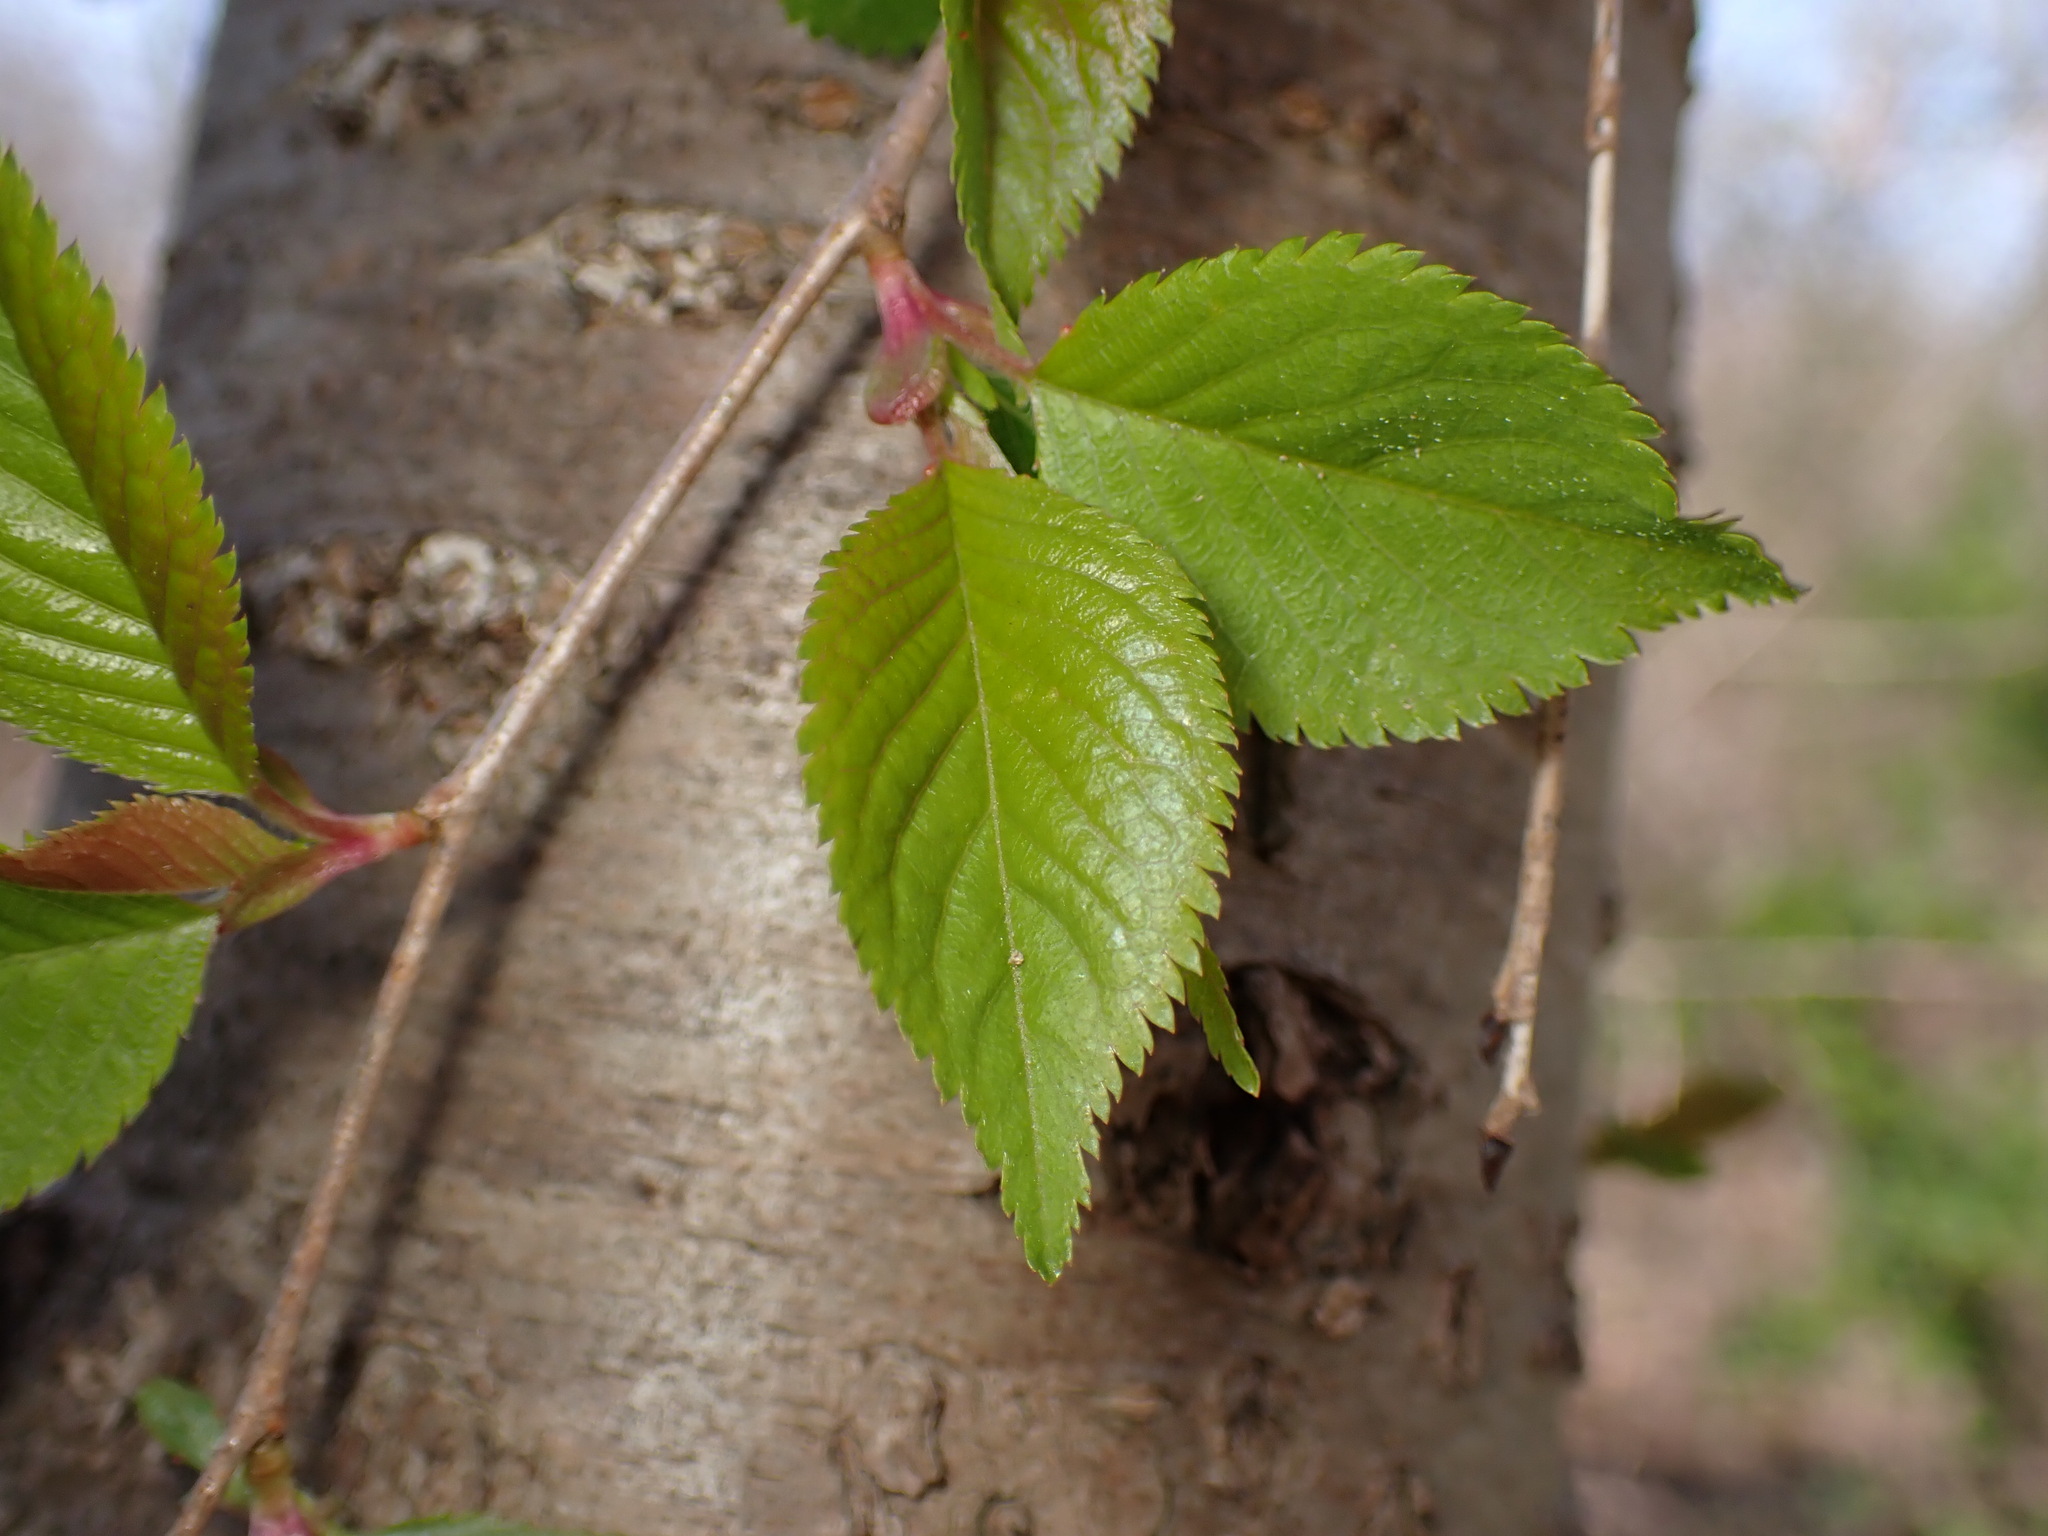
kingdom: Plantae
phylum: Tracheophyta
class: Magnoliopsida
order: Rosales
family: Rosaceae
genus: Prunus
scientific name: Prunus serrulata
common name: Japanese cherry
